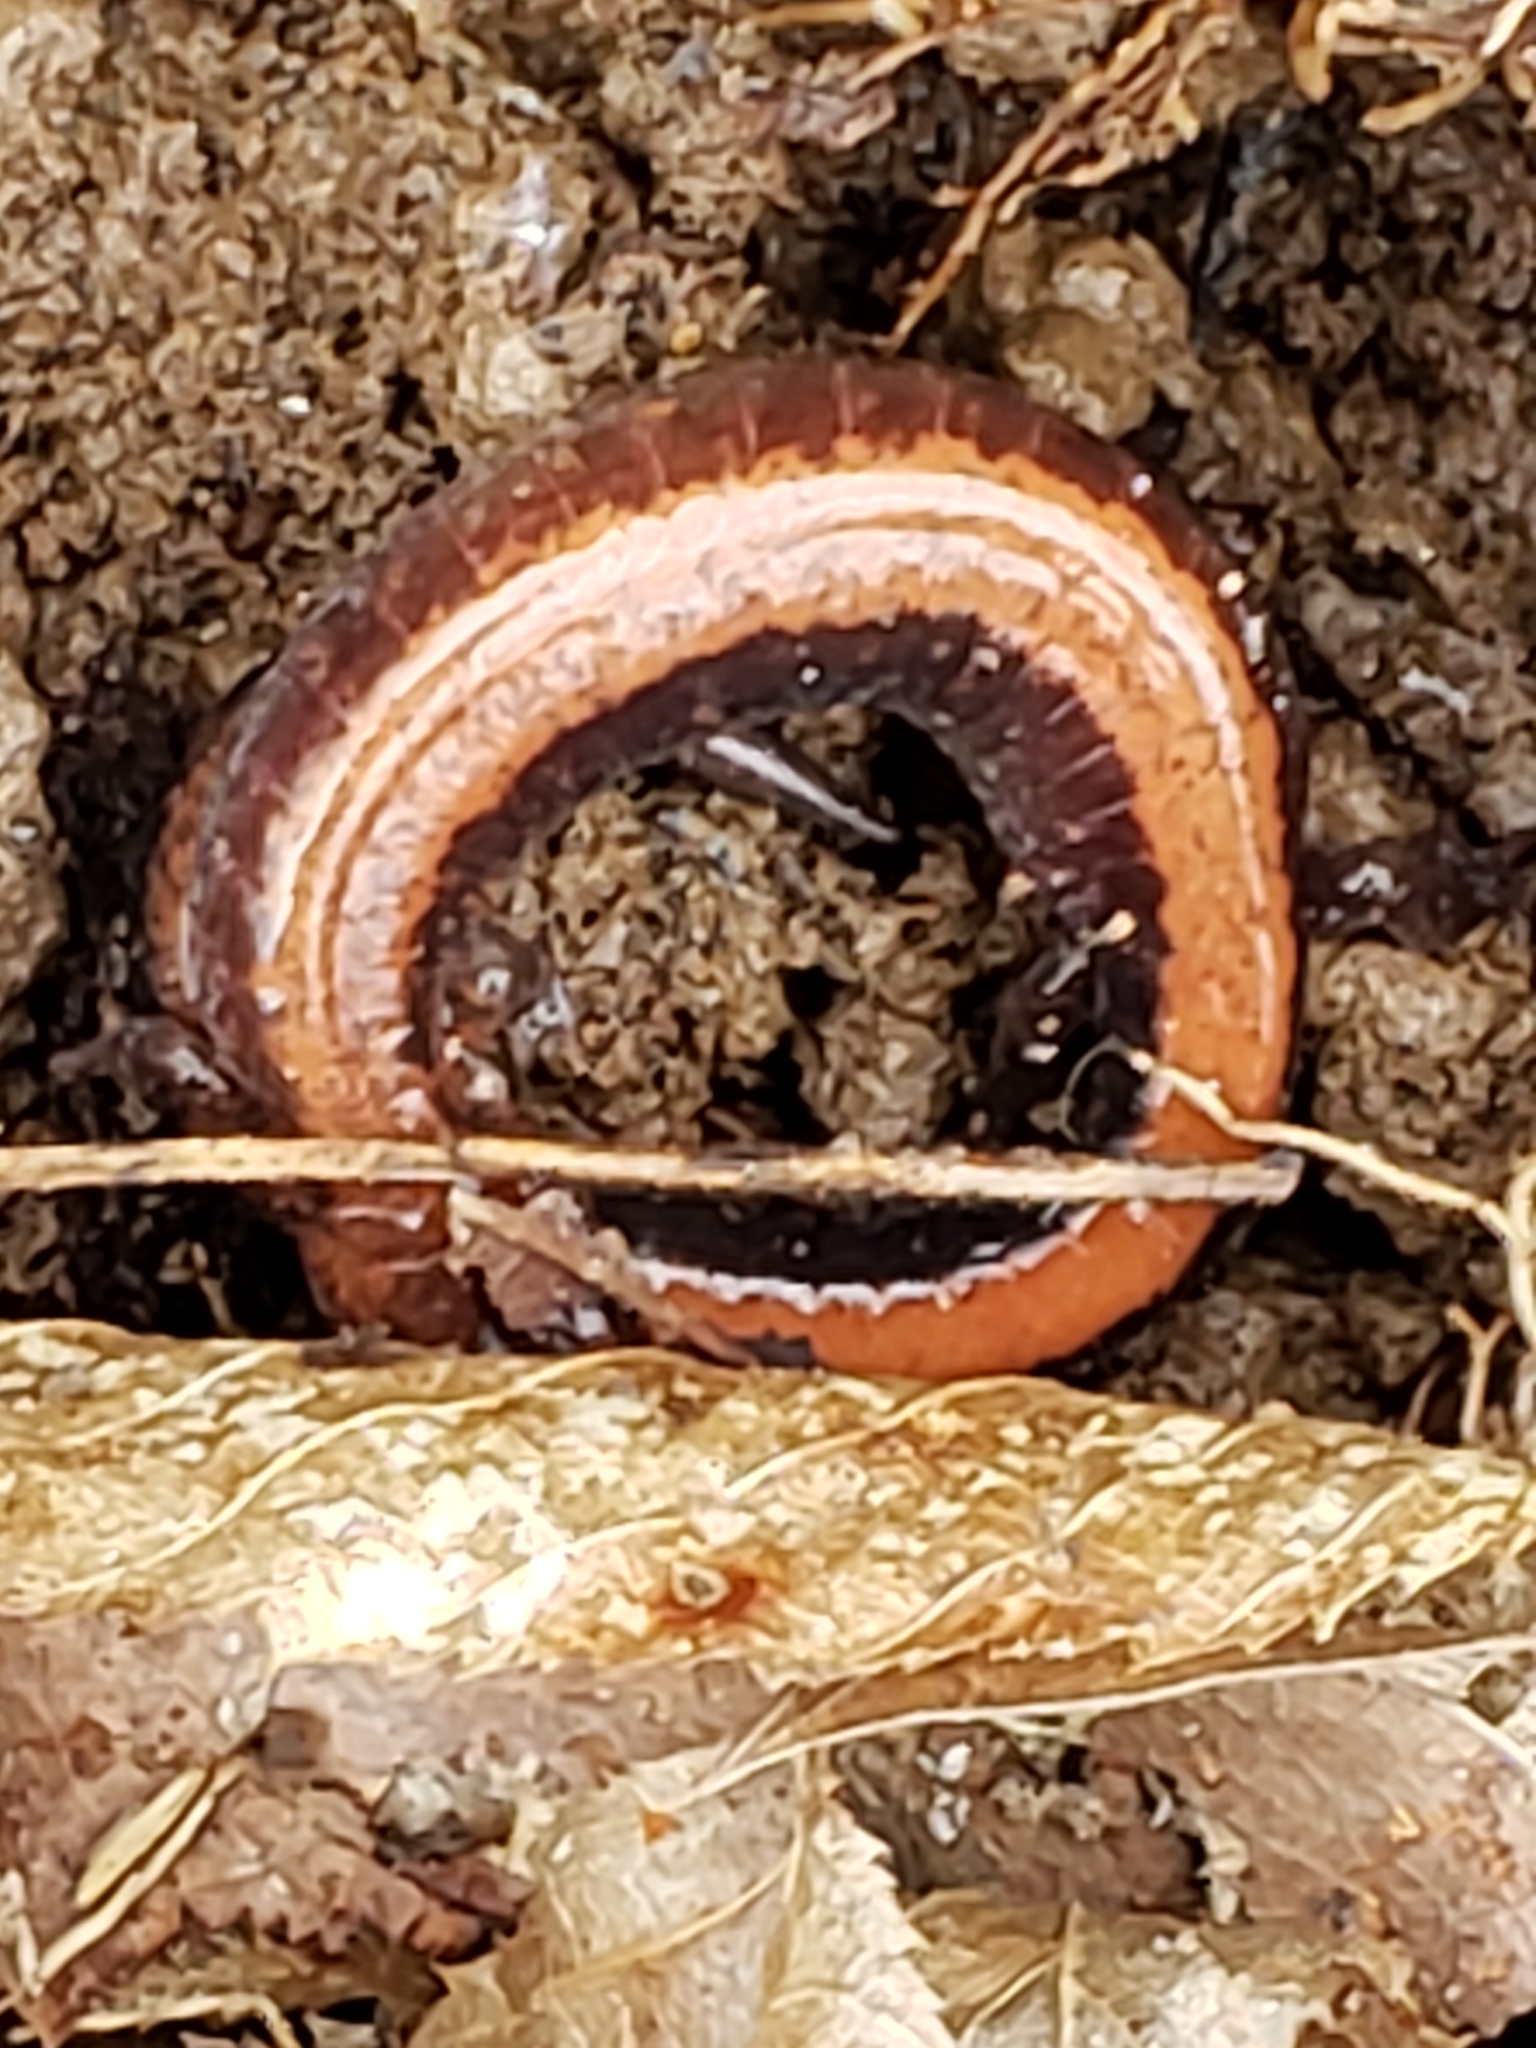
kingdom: Animalia
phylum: Chordata
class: Amphibia
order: Caudata
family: Plethodontidae
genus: Plethodon
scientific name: Plethodon cinereus
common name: Redback salamander
